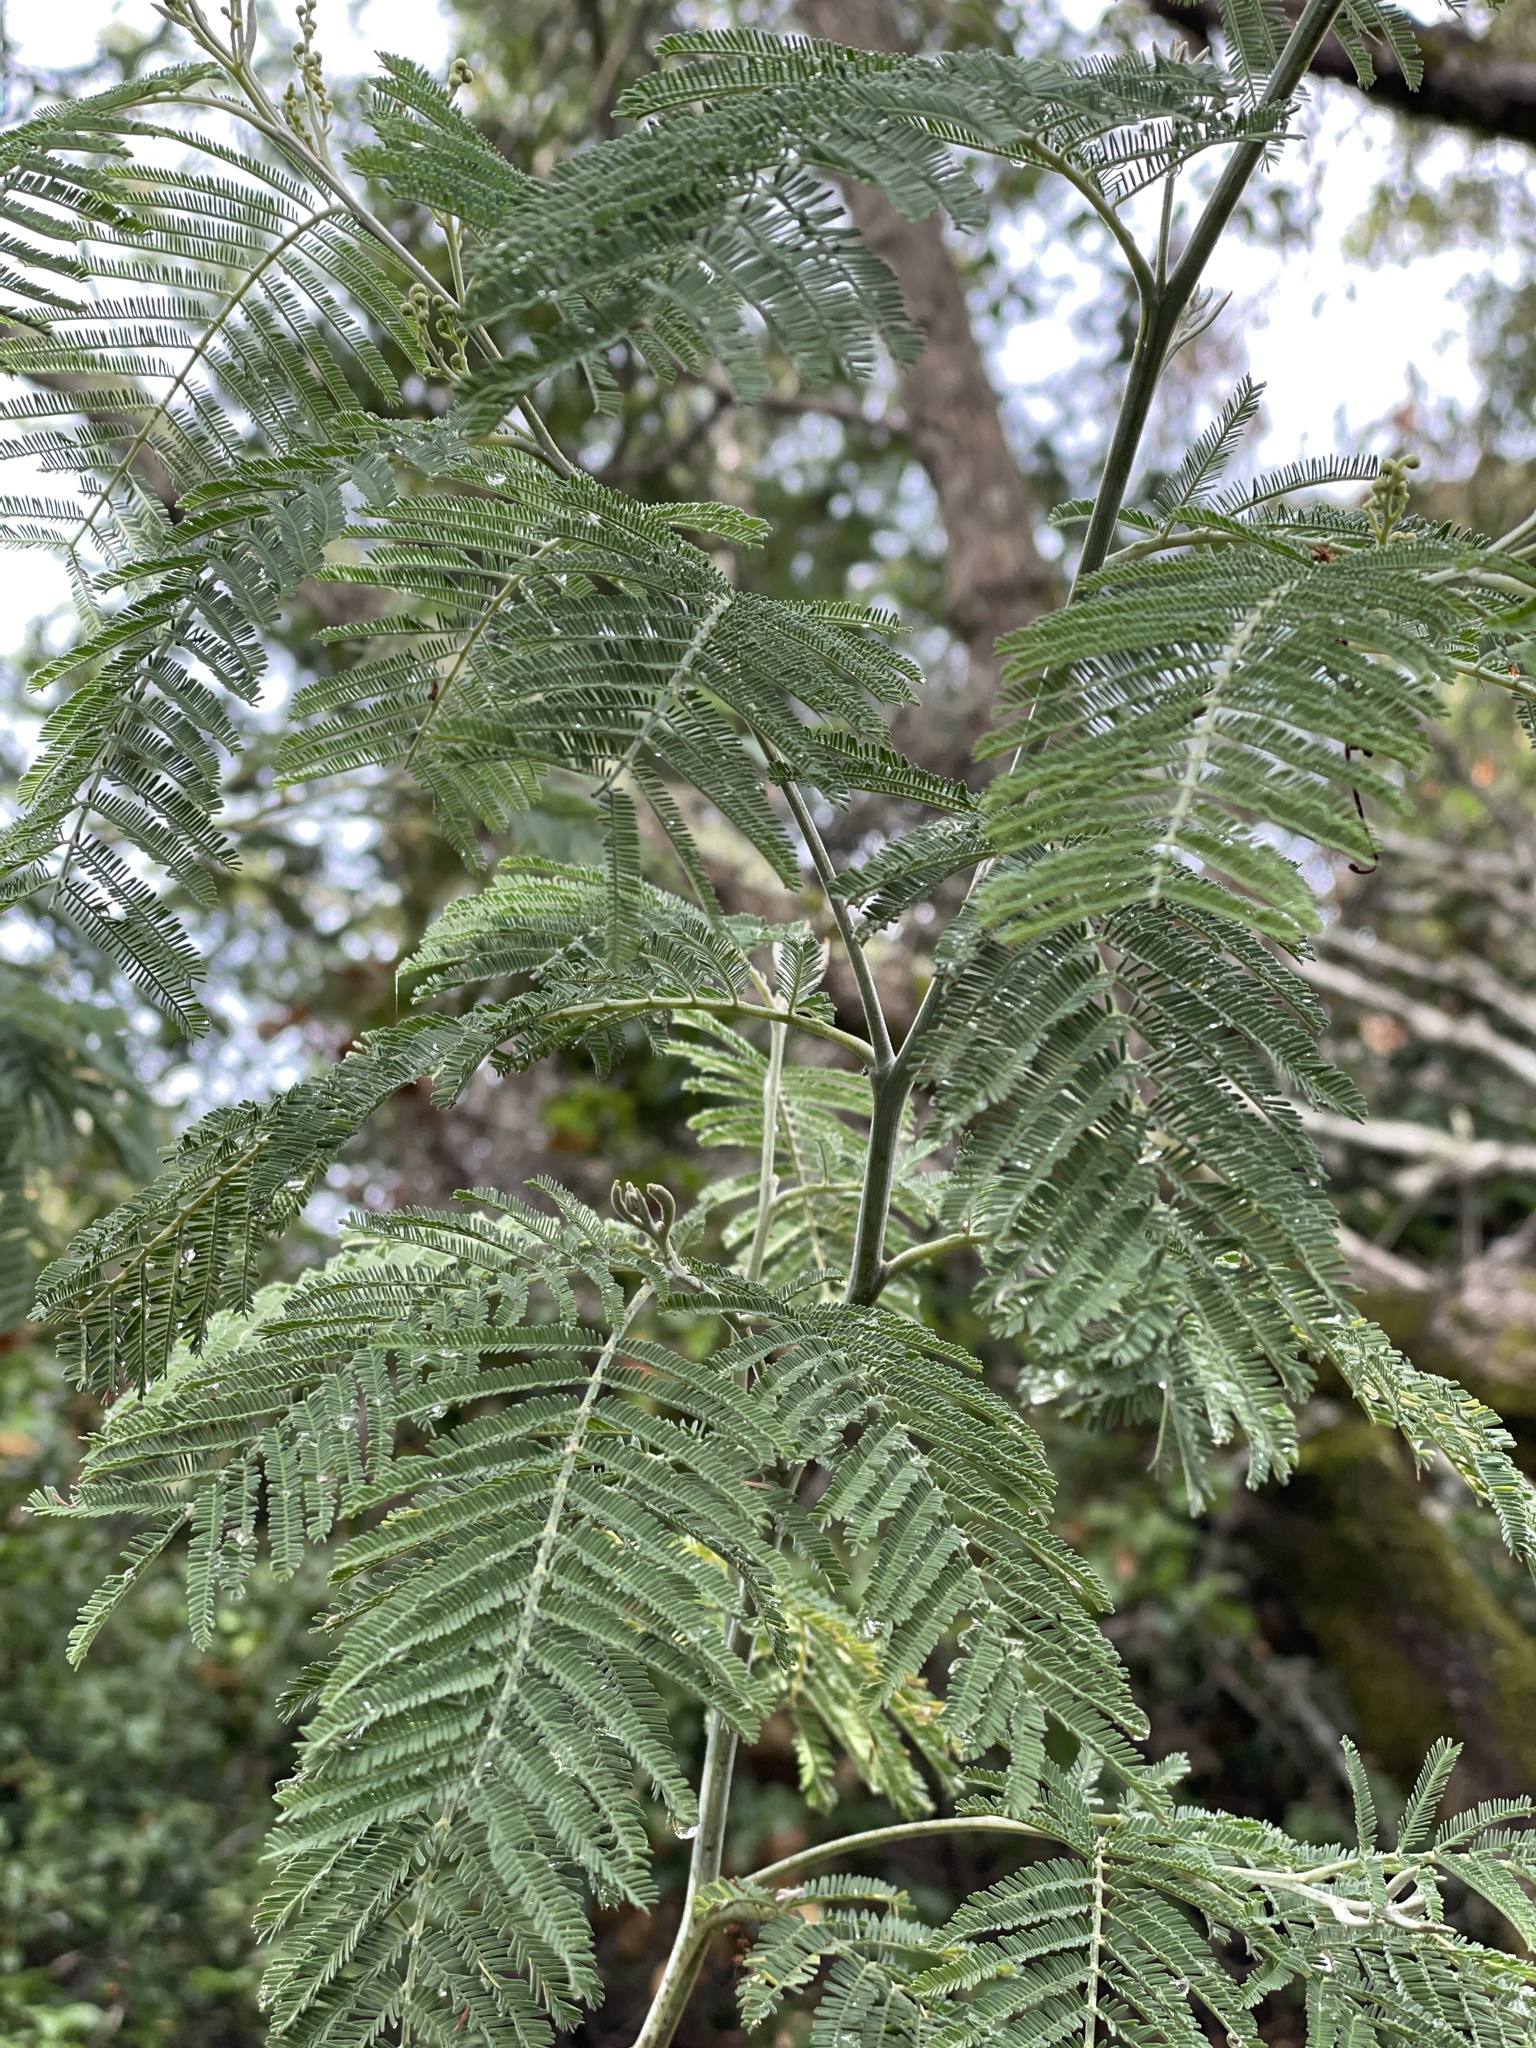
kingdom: Plantae
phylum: Tracheophyta
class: Magnoliopsida
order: Fabales
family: Fabaceae
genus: Acacia
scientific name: Acacia dealbata
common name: Silver wattle
